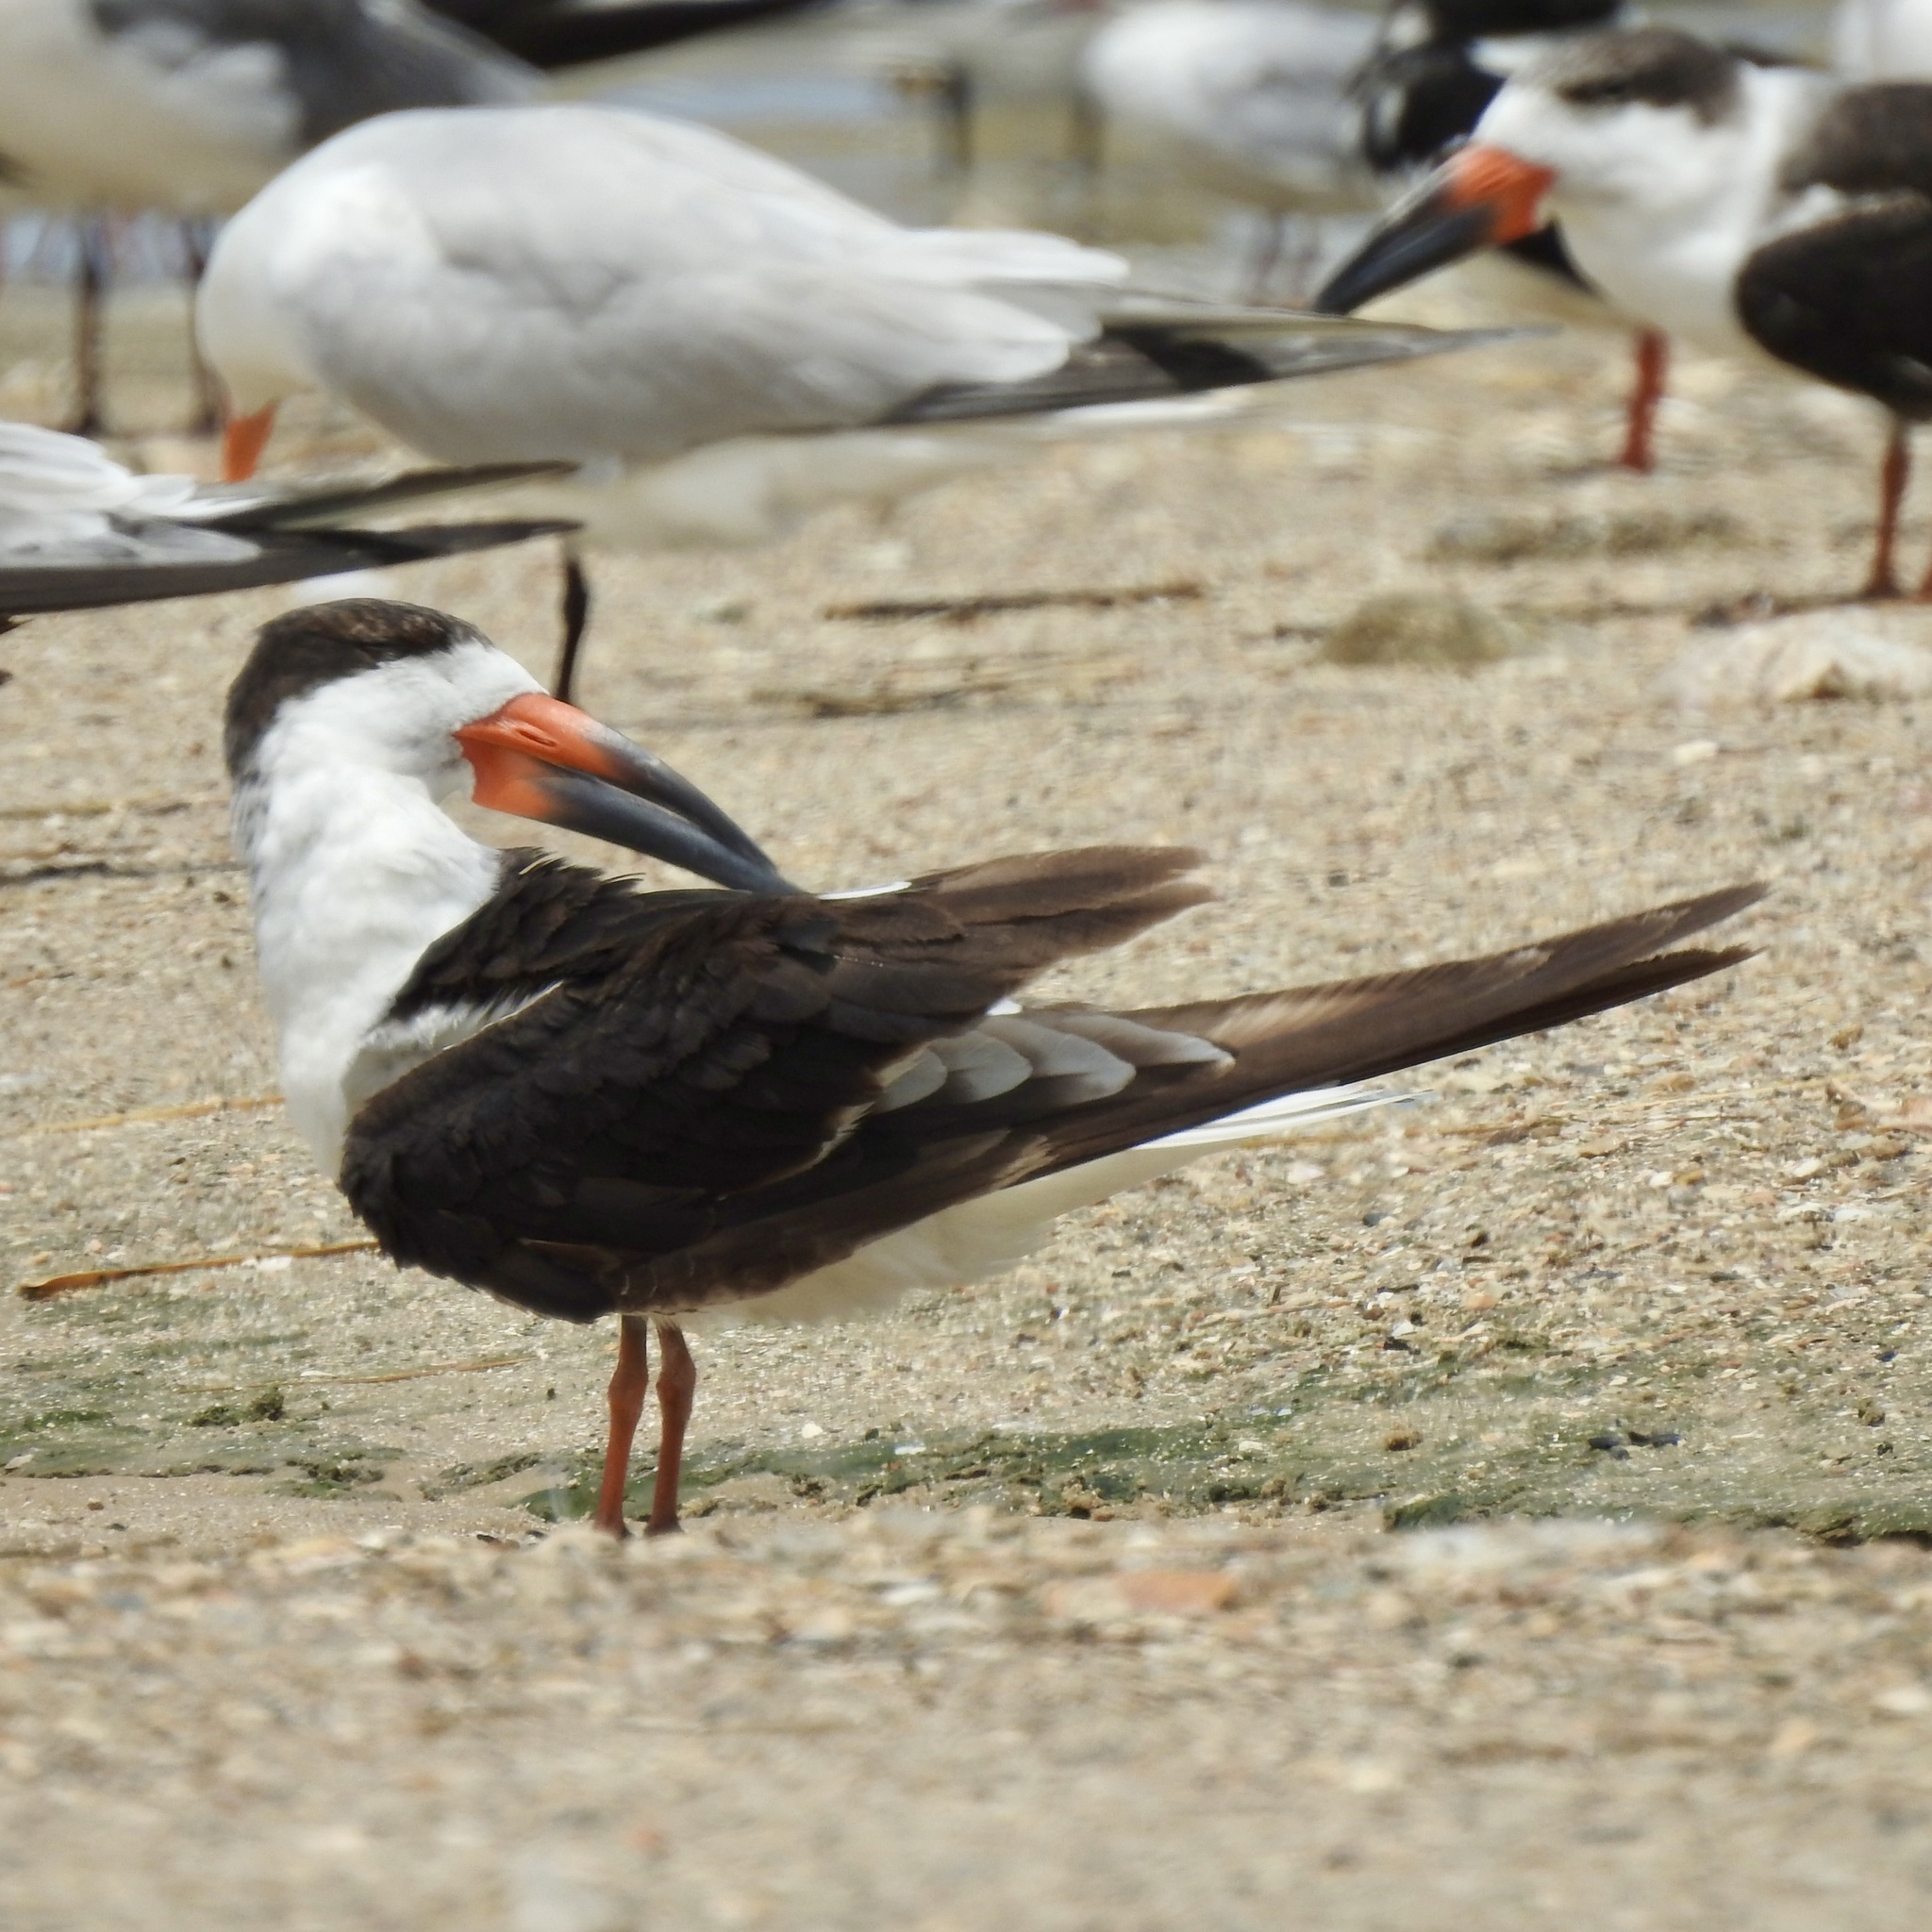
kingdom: Animalia
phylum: Chordata
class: Aves
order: Charadriiformes
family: Laridae
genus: Rynchops
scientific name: Rynchops niger
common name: Black skimmer
